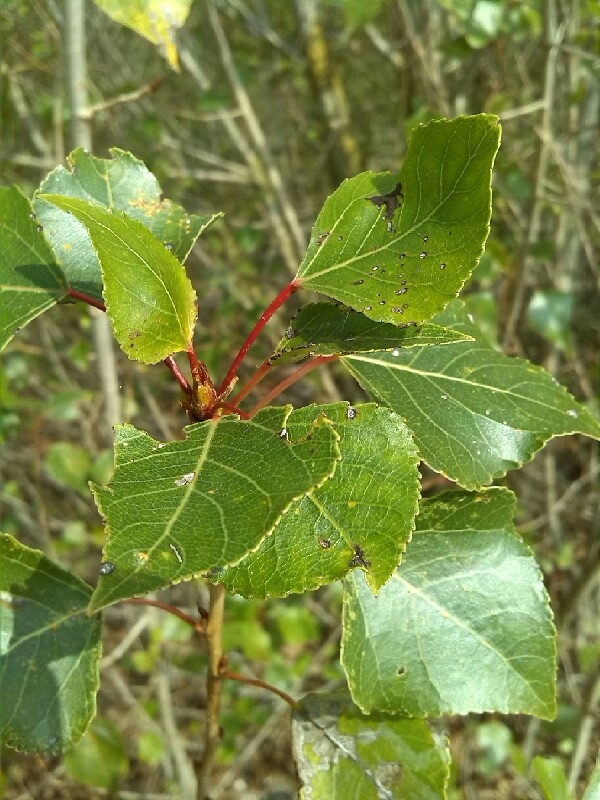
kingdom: Plantae
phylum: Tracheophyta
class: Magnoliopsida
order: Malpighiales
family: Salicaceae
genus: Populus
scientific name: Populus nigra
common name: Black poplar
